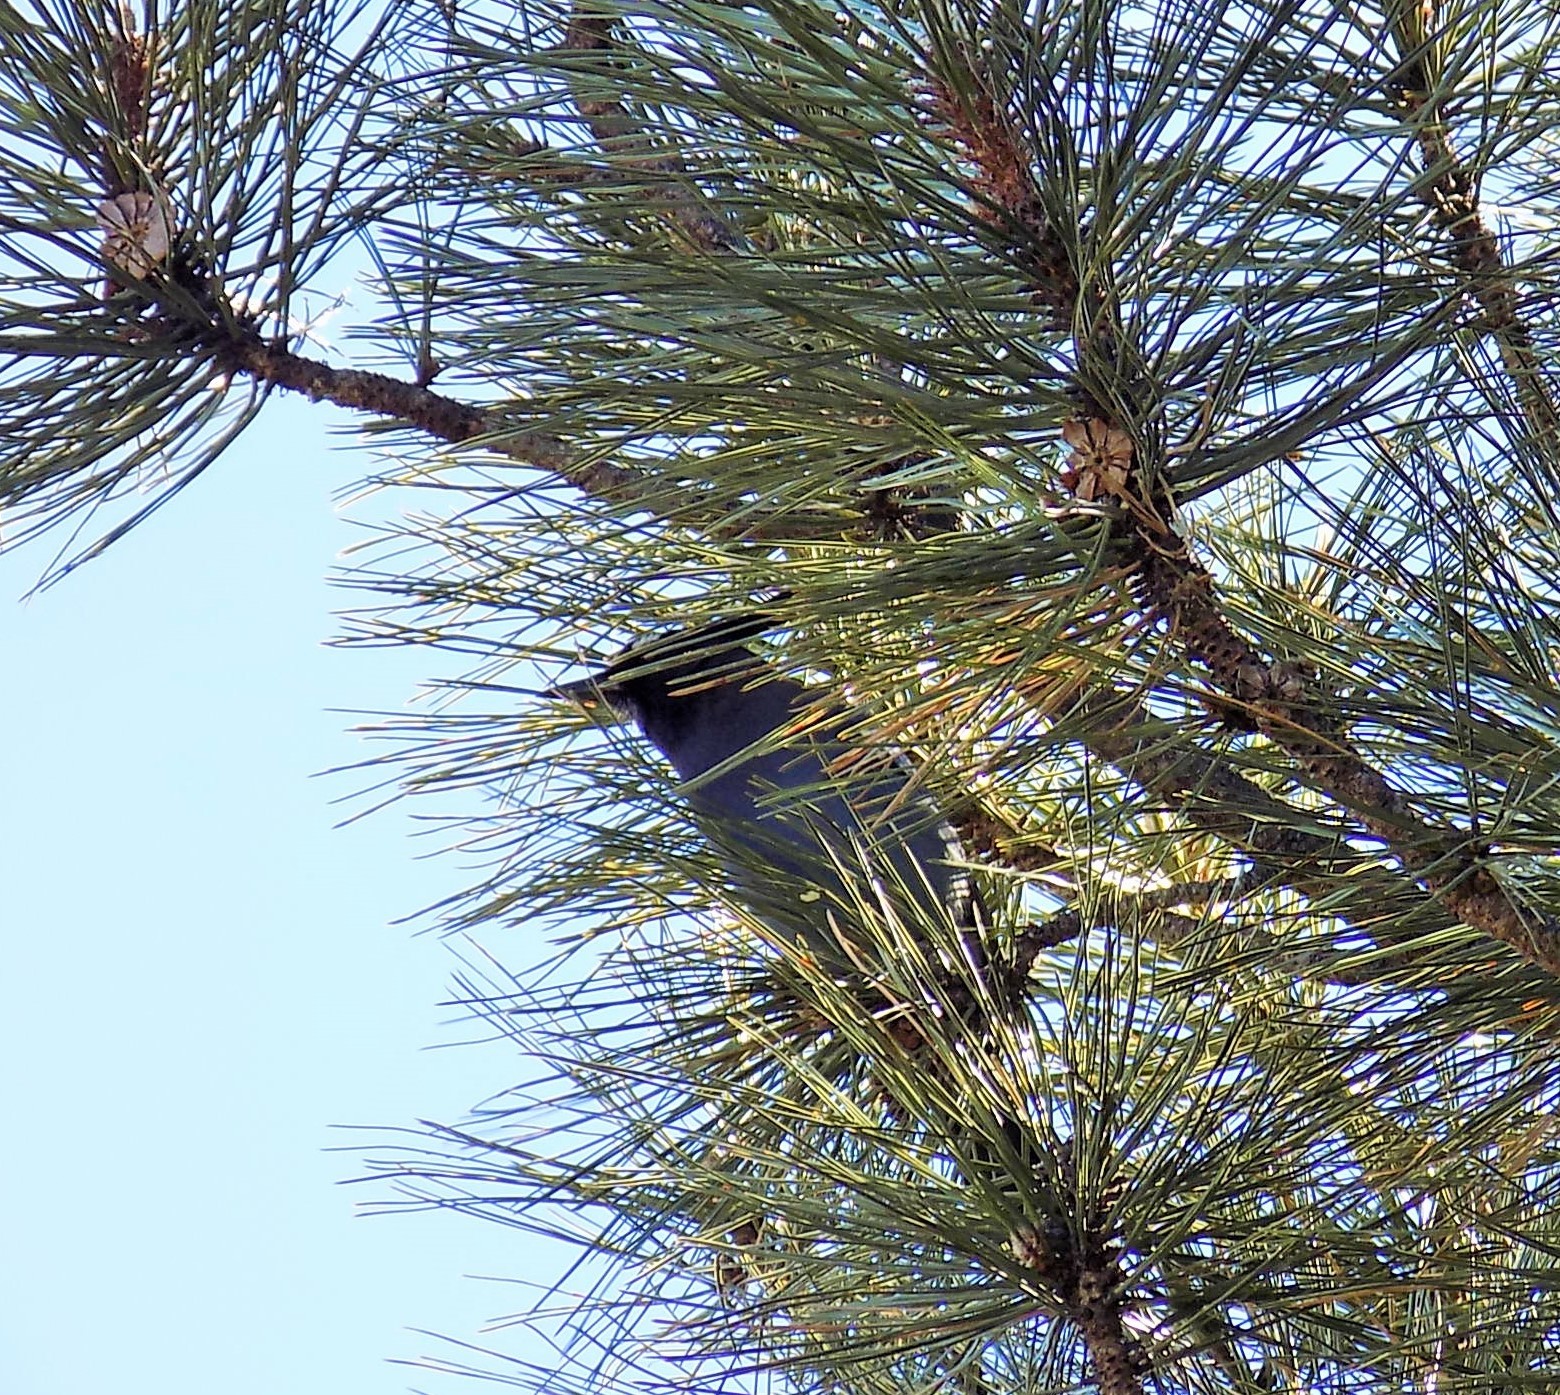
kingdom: Animalia
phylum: Chordata
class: Aves
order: Passeriformes
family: Corvidae
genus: Cyanocitta
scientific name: Cyanocitta stelleri
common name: Steller's jay
